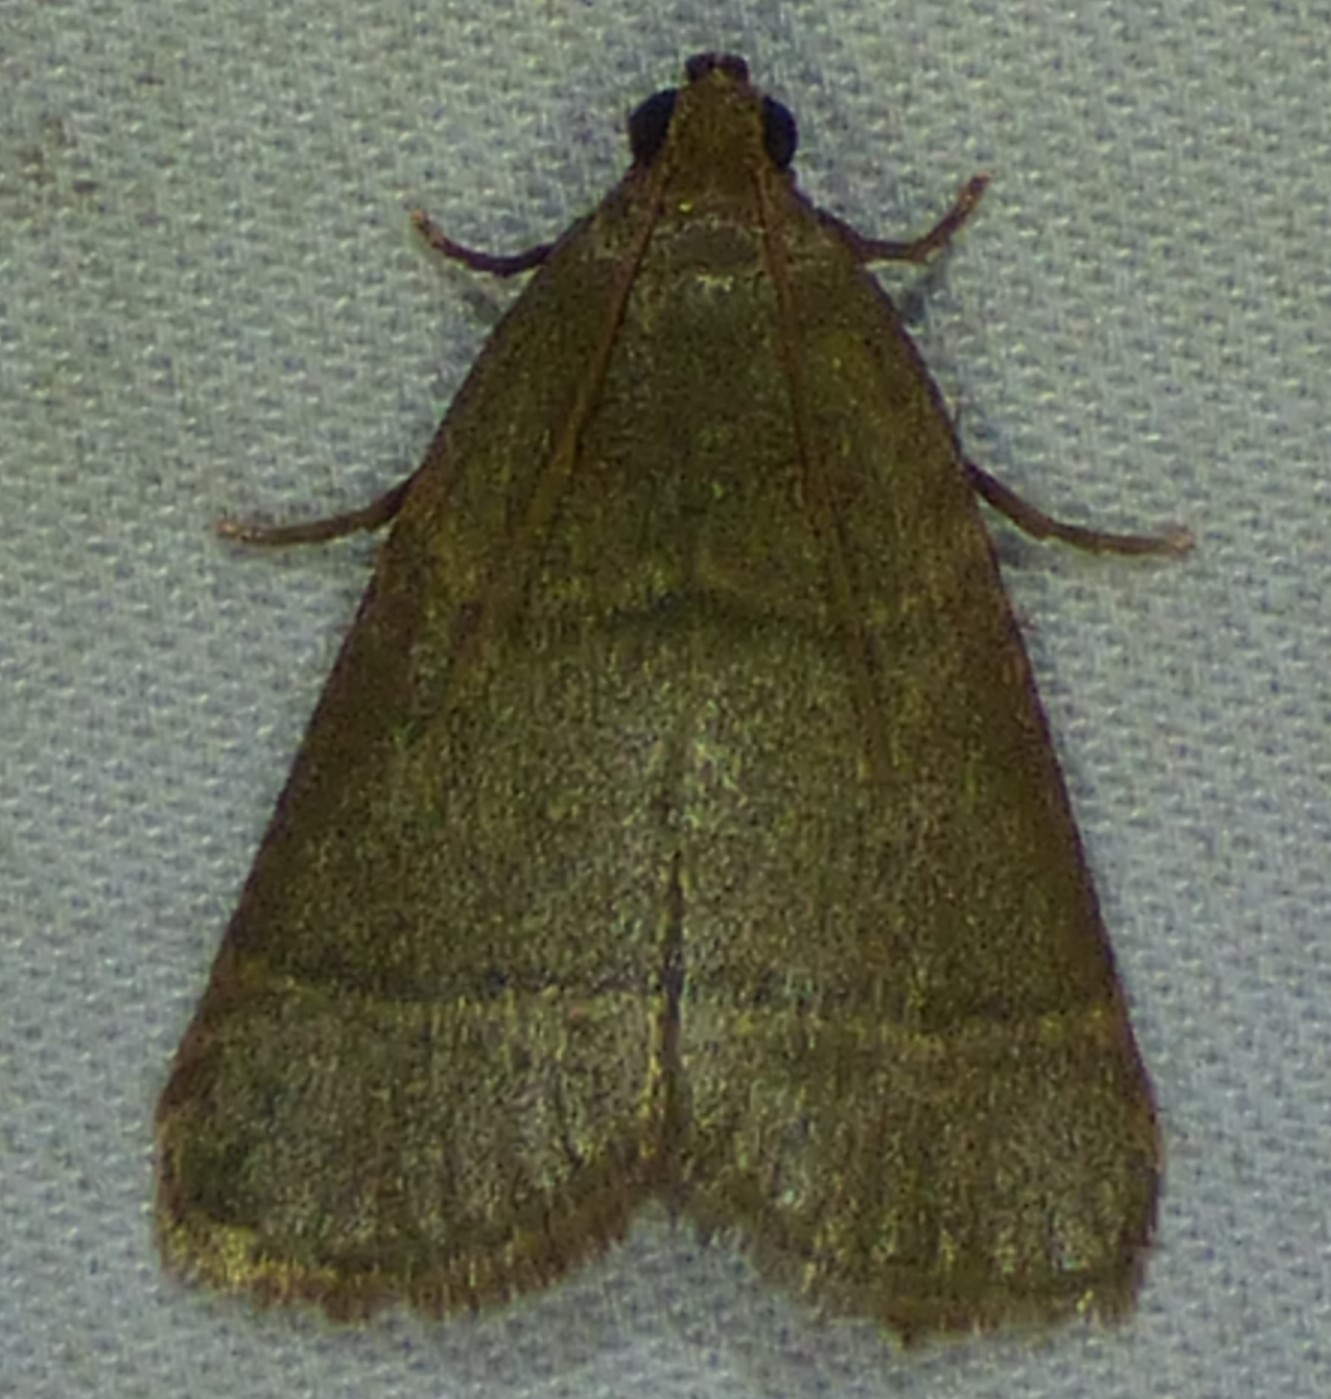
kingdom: Animalia
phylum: Arthropoda
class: Insecta
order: Lepidoptera
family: Pyralidae
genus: Hypsopygia
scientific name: Hypsopygia nostralis
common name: Southern hayworm moth
